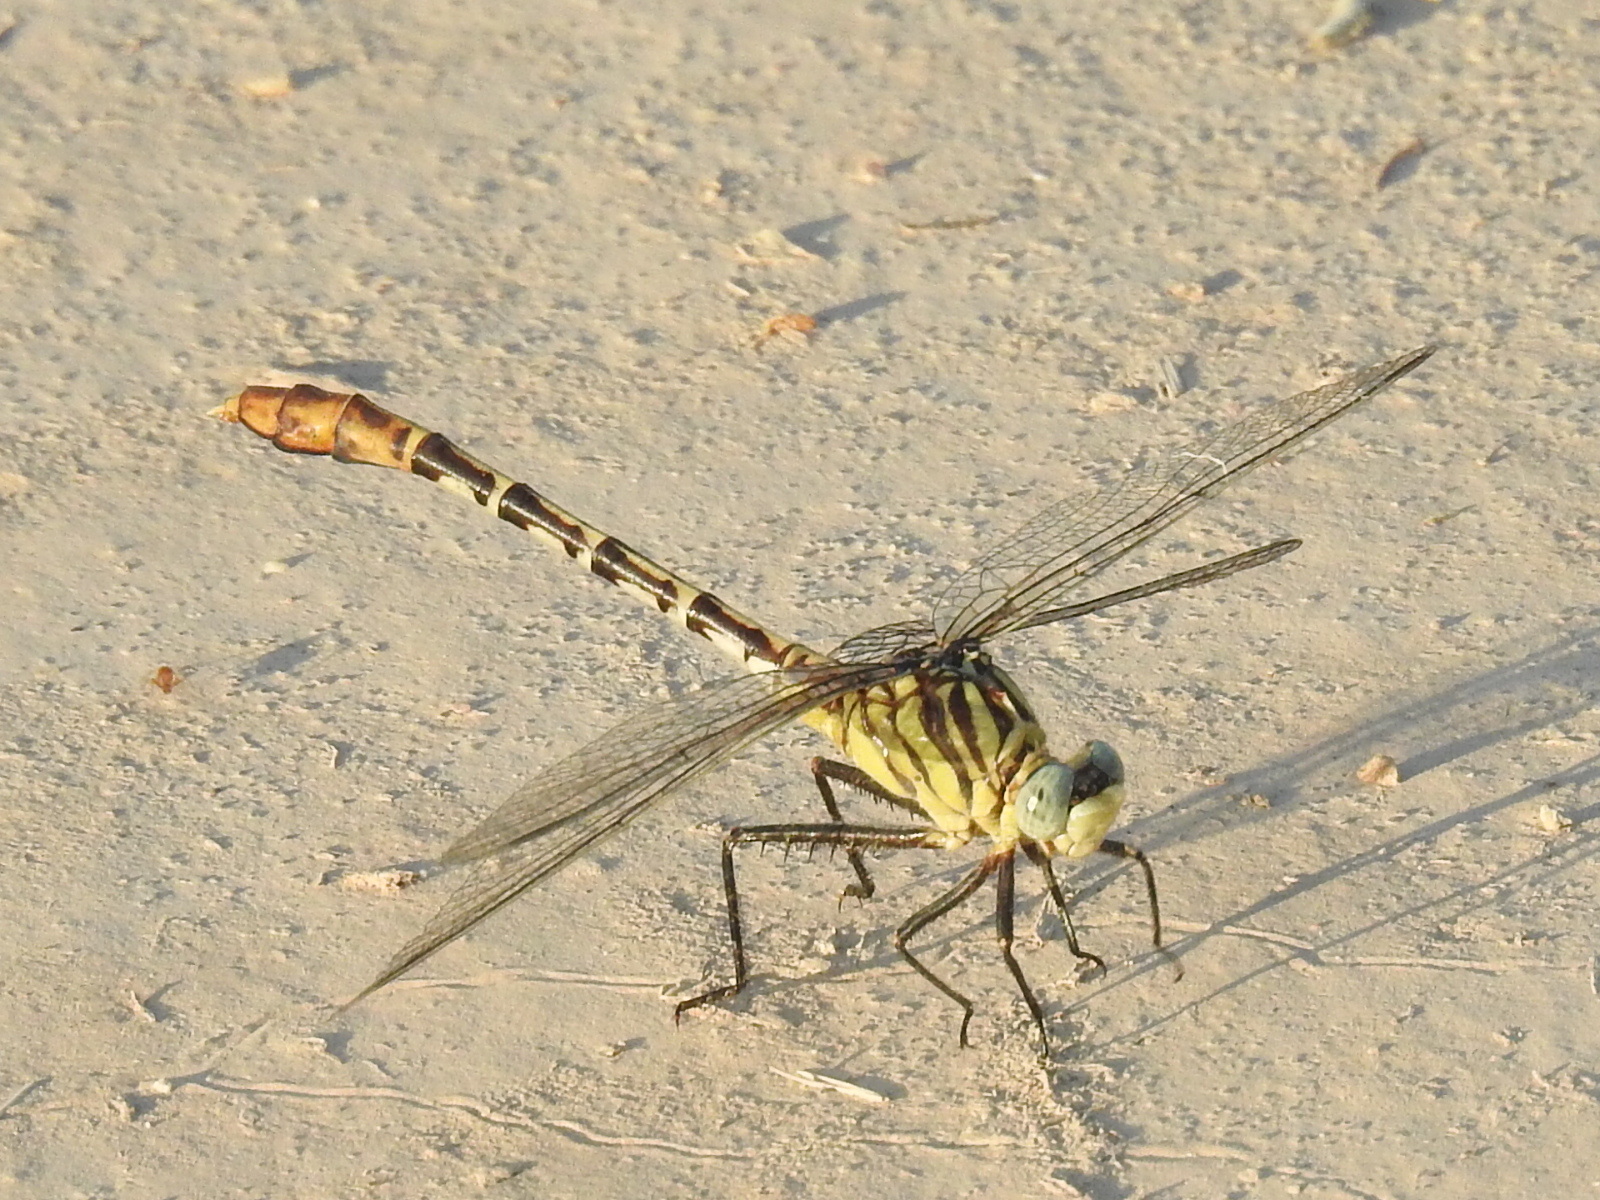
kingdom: Animalia
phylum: Arthropoda
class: Insecta
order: Odonata
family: Gomphidae
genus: Dromogomphus
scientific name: Dromogomphus spoliatus
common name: Flag-tailed spinyleg
